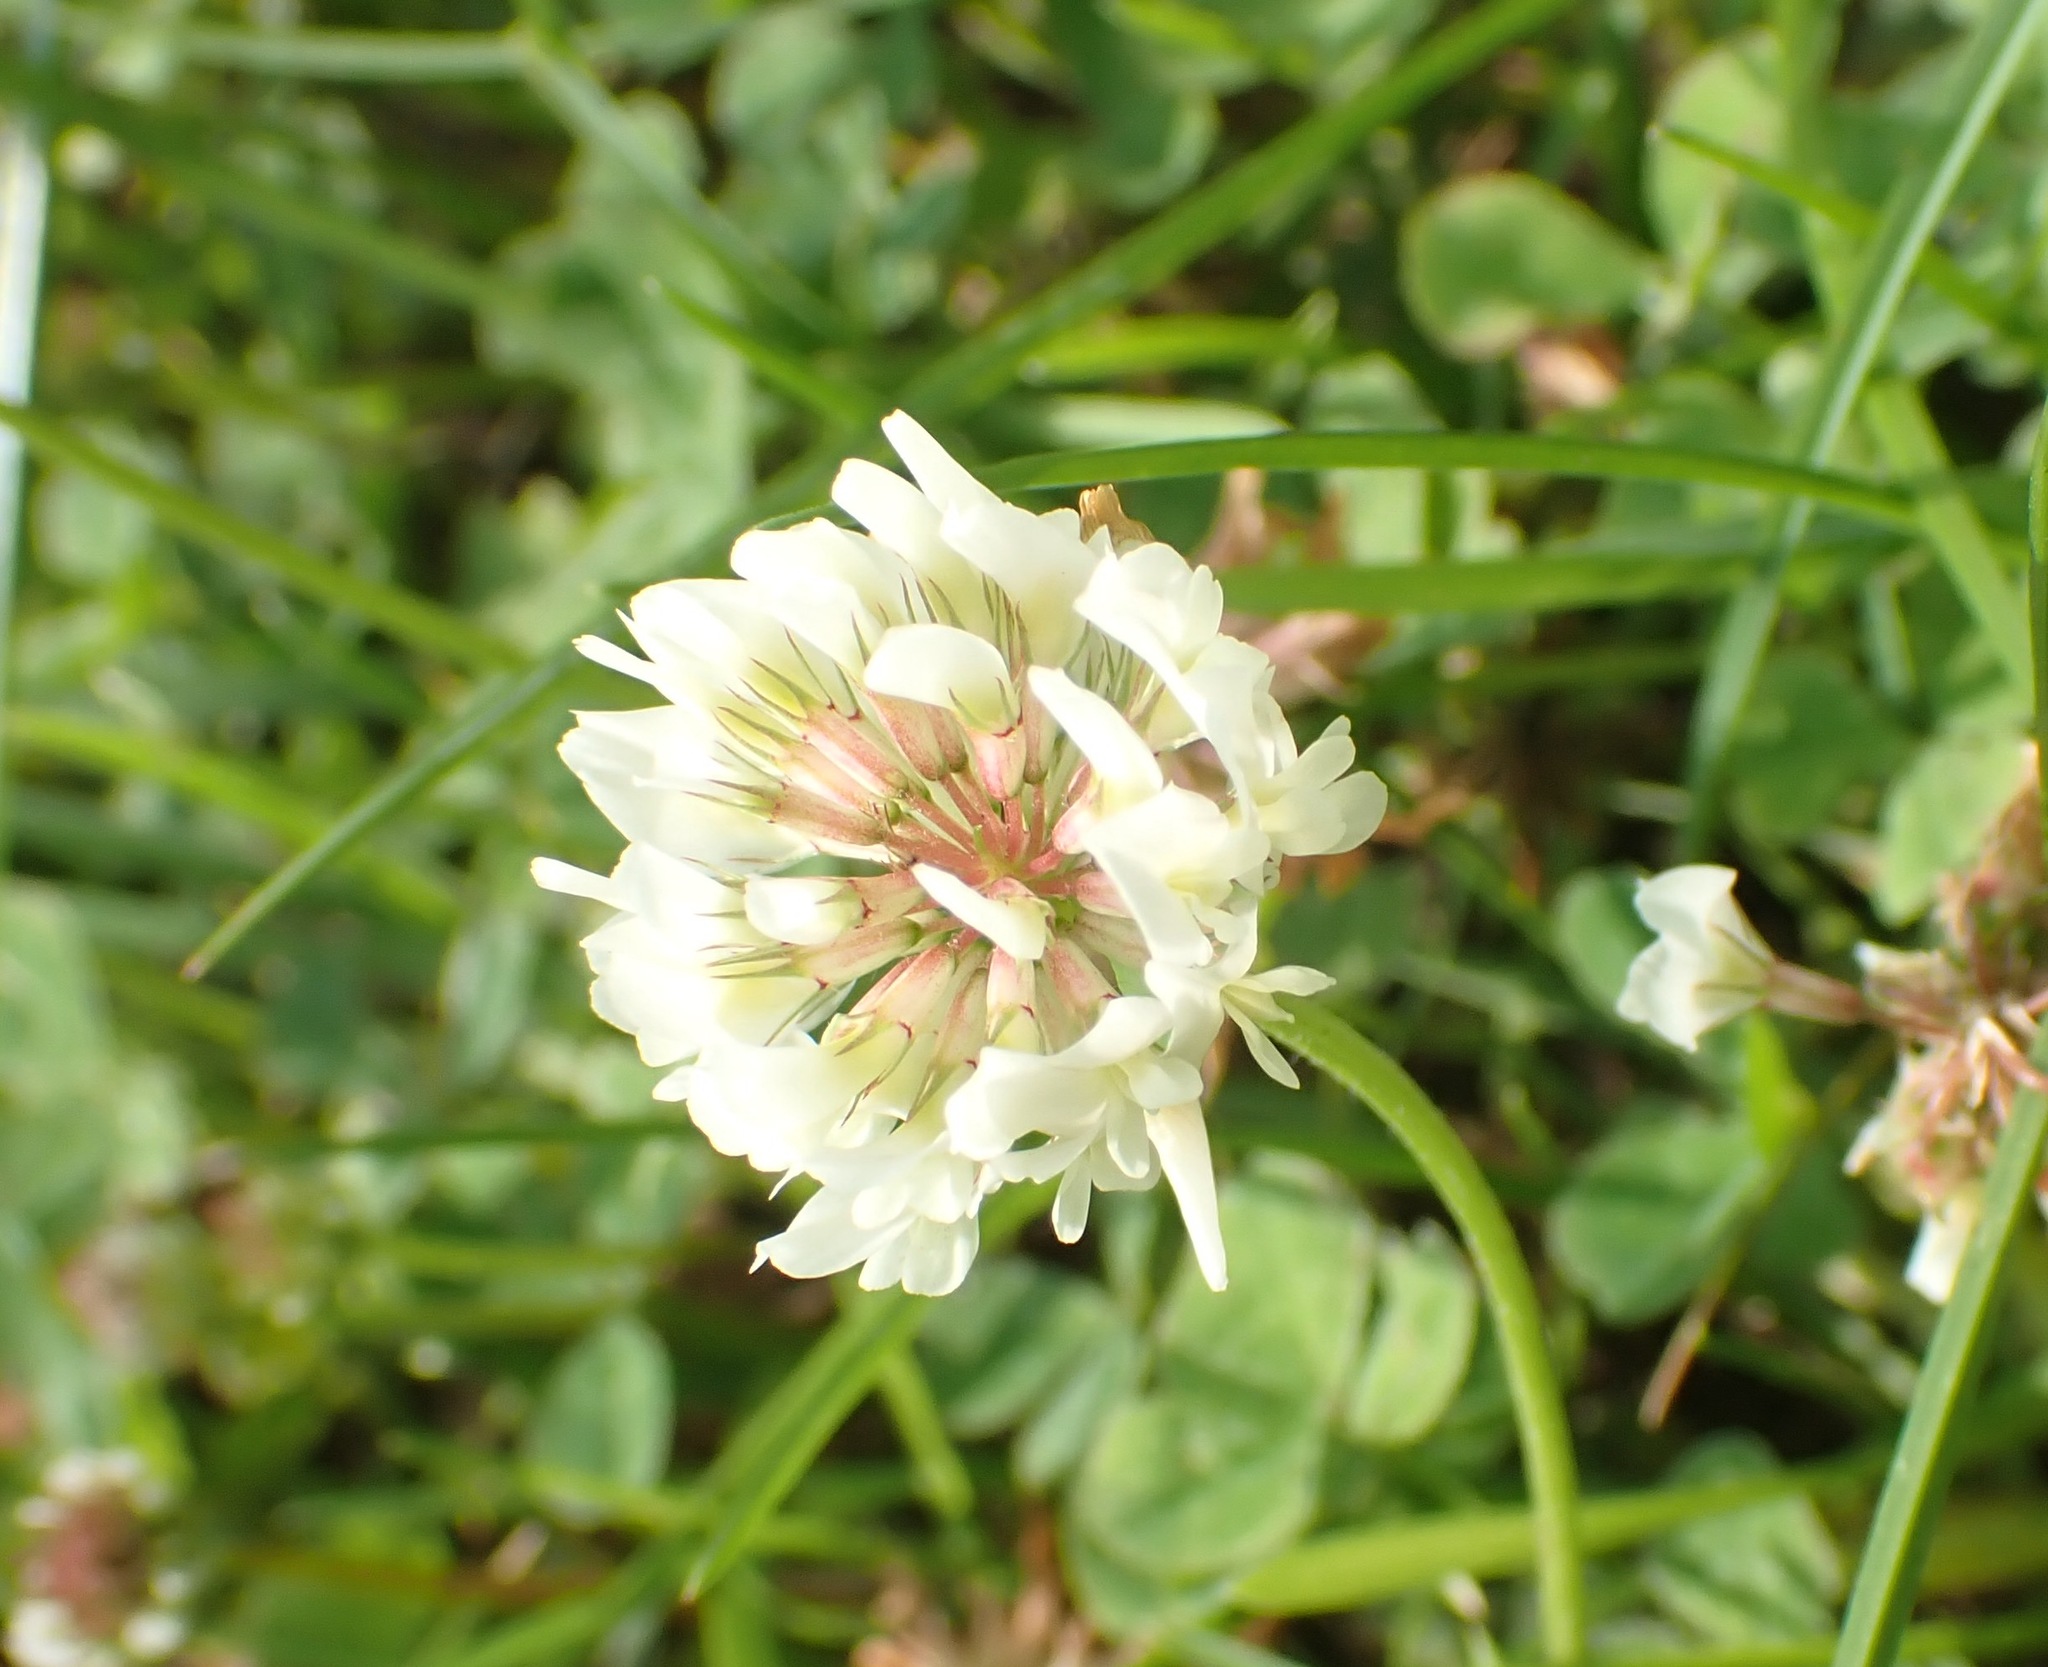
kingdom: Plantae
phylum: Tracheophyta
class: Magnoliopsida
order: Fabales
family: Fabaceae
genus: Trifolium
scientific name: Trifolium repens
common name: White clover
